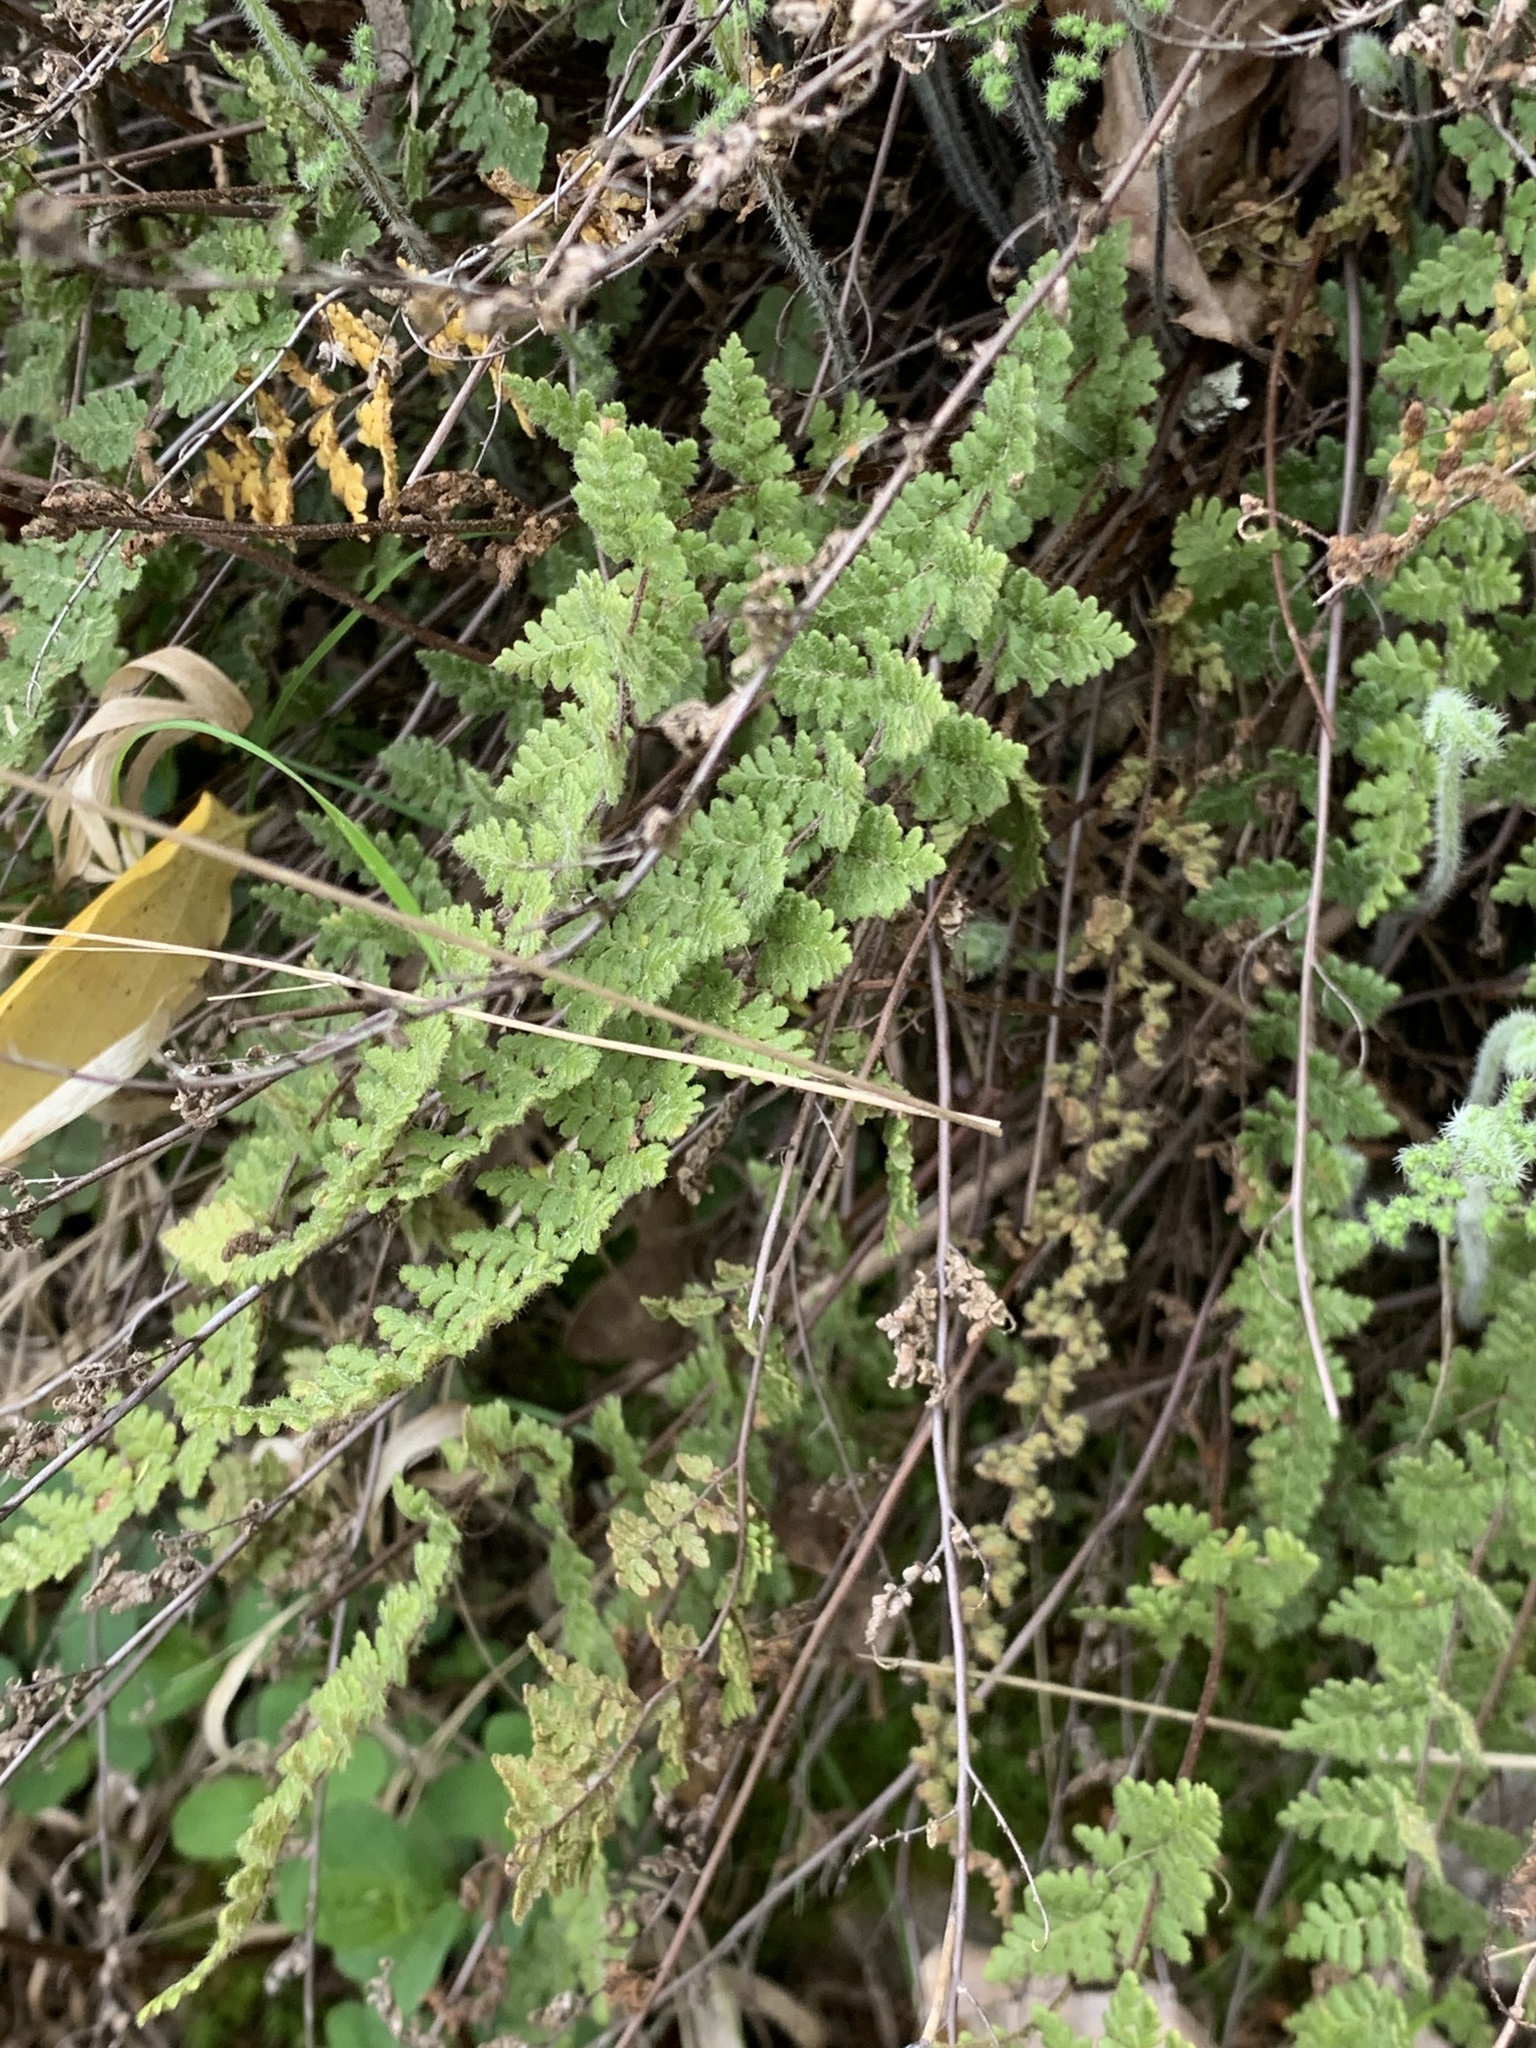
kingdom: Plantae
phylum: Tracheophyta
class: Polypodiopsida
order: Polypodiales
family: Pteridaceae
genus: Myriopteris
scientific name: Myriopteris lanosa
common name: Hairy lip fern
